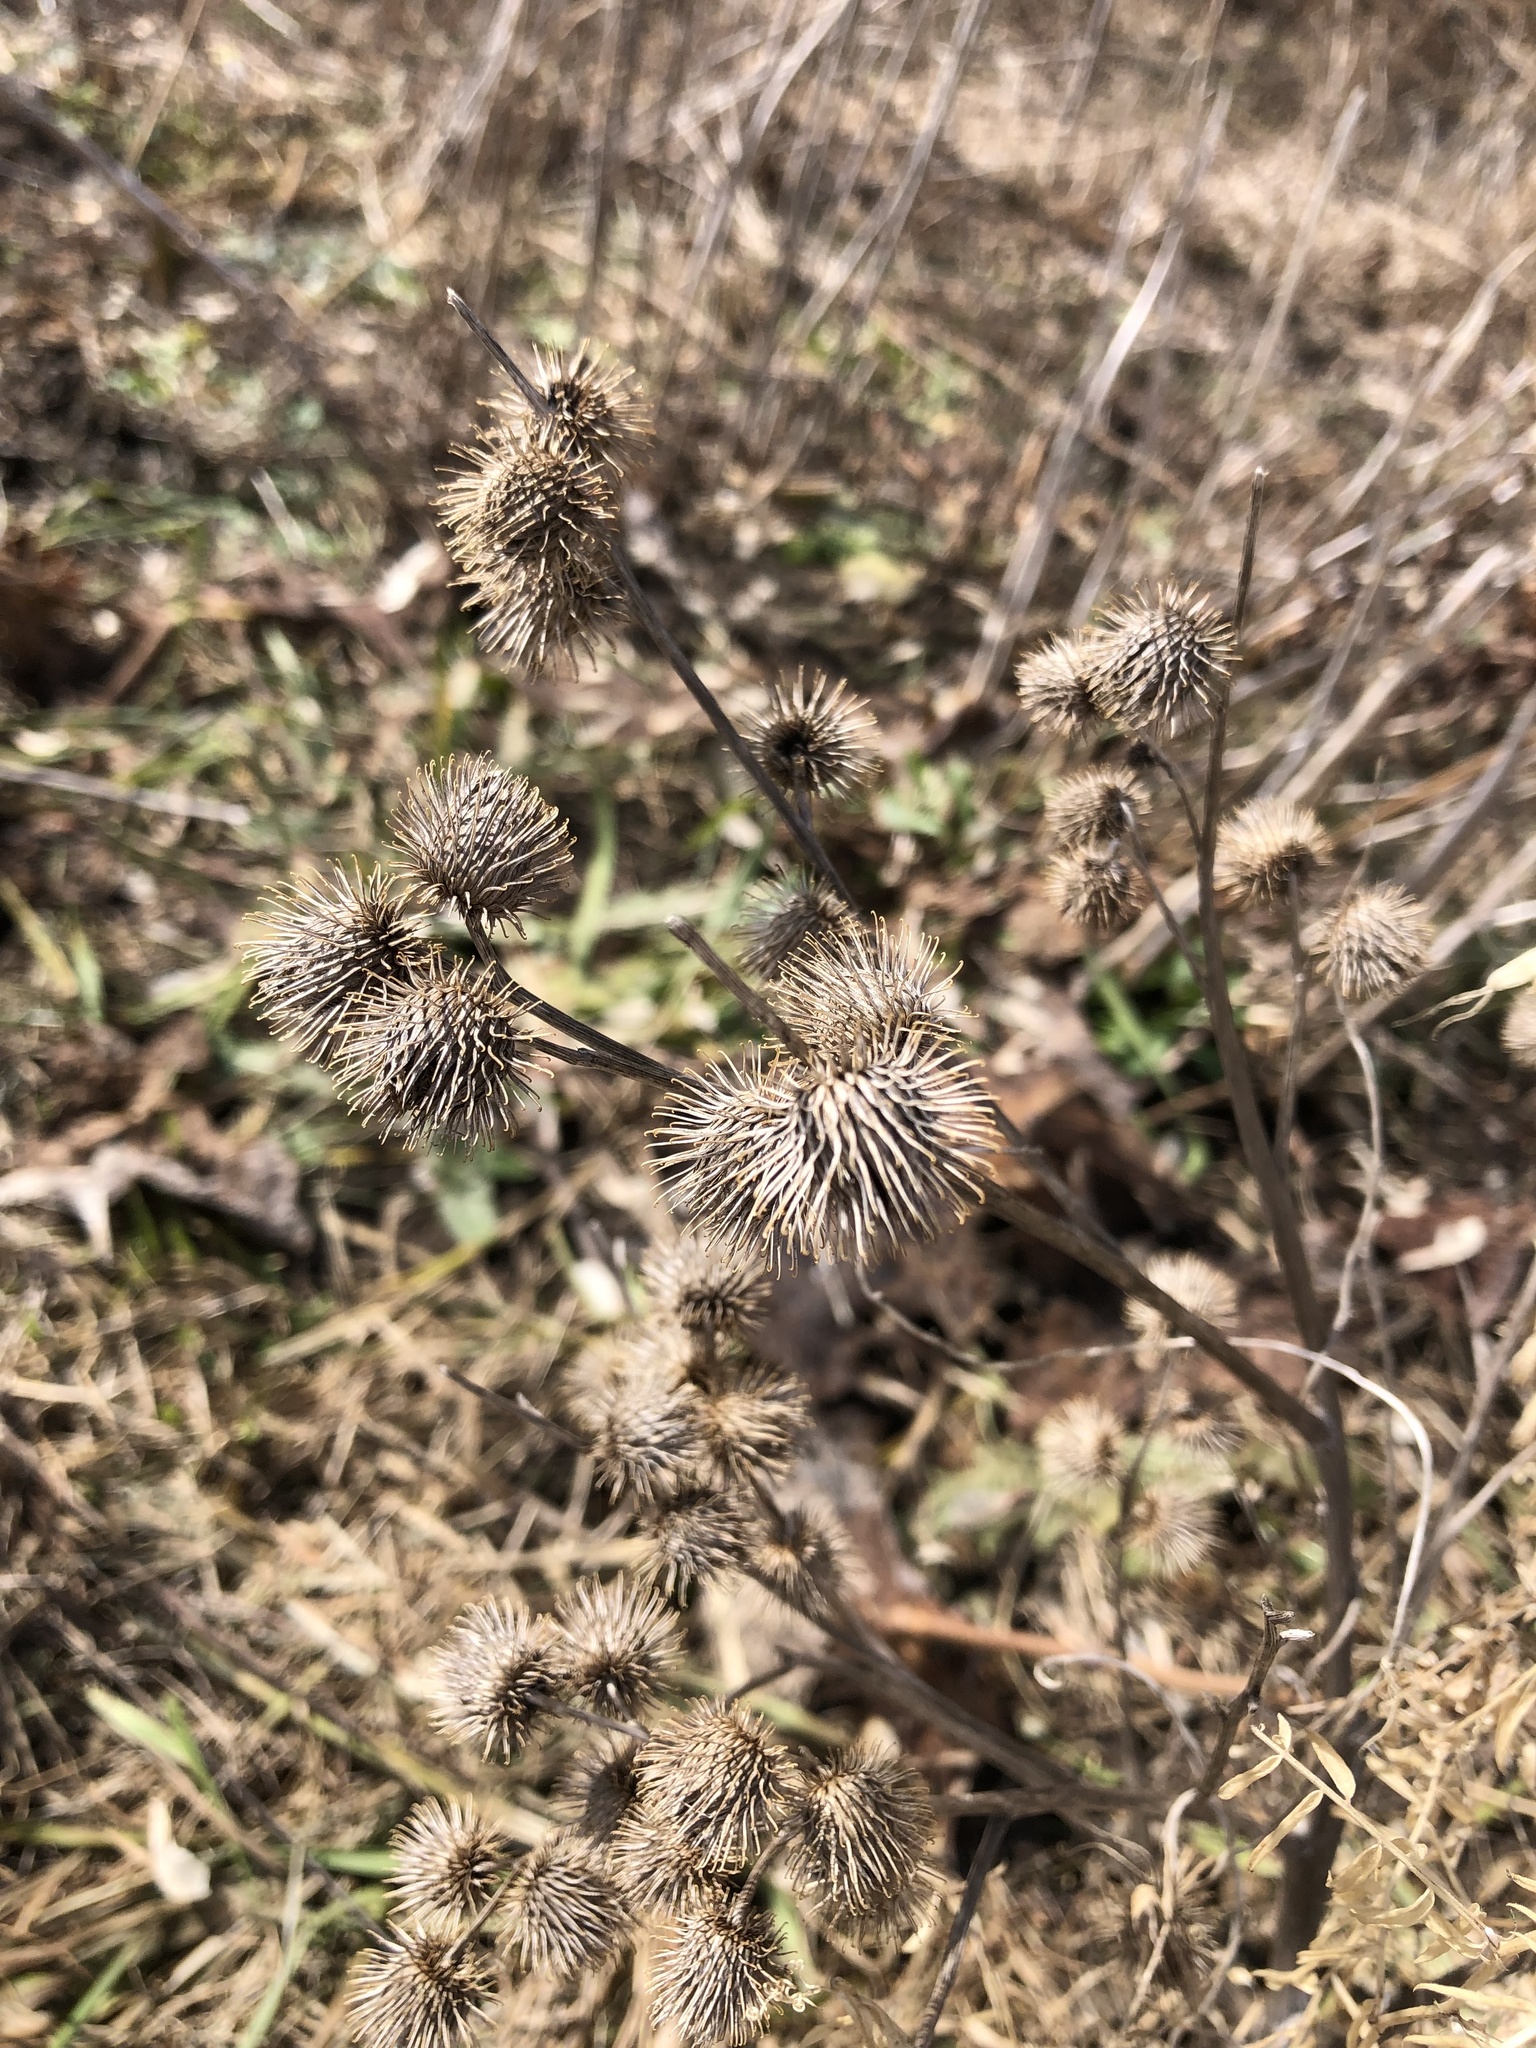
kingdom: Plantae
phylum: Tracheophyta
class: Magnoliopsida
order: Asterales
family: Asteraceae
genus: Arctium
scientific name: Arctium minus
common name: Lesser burdock
